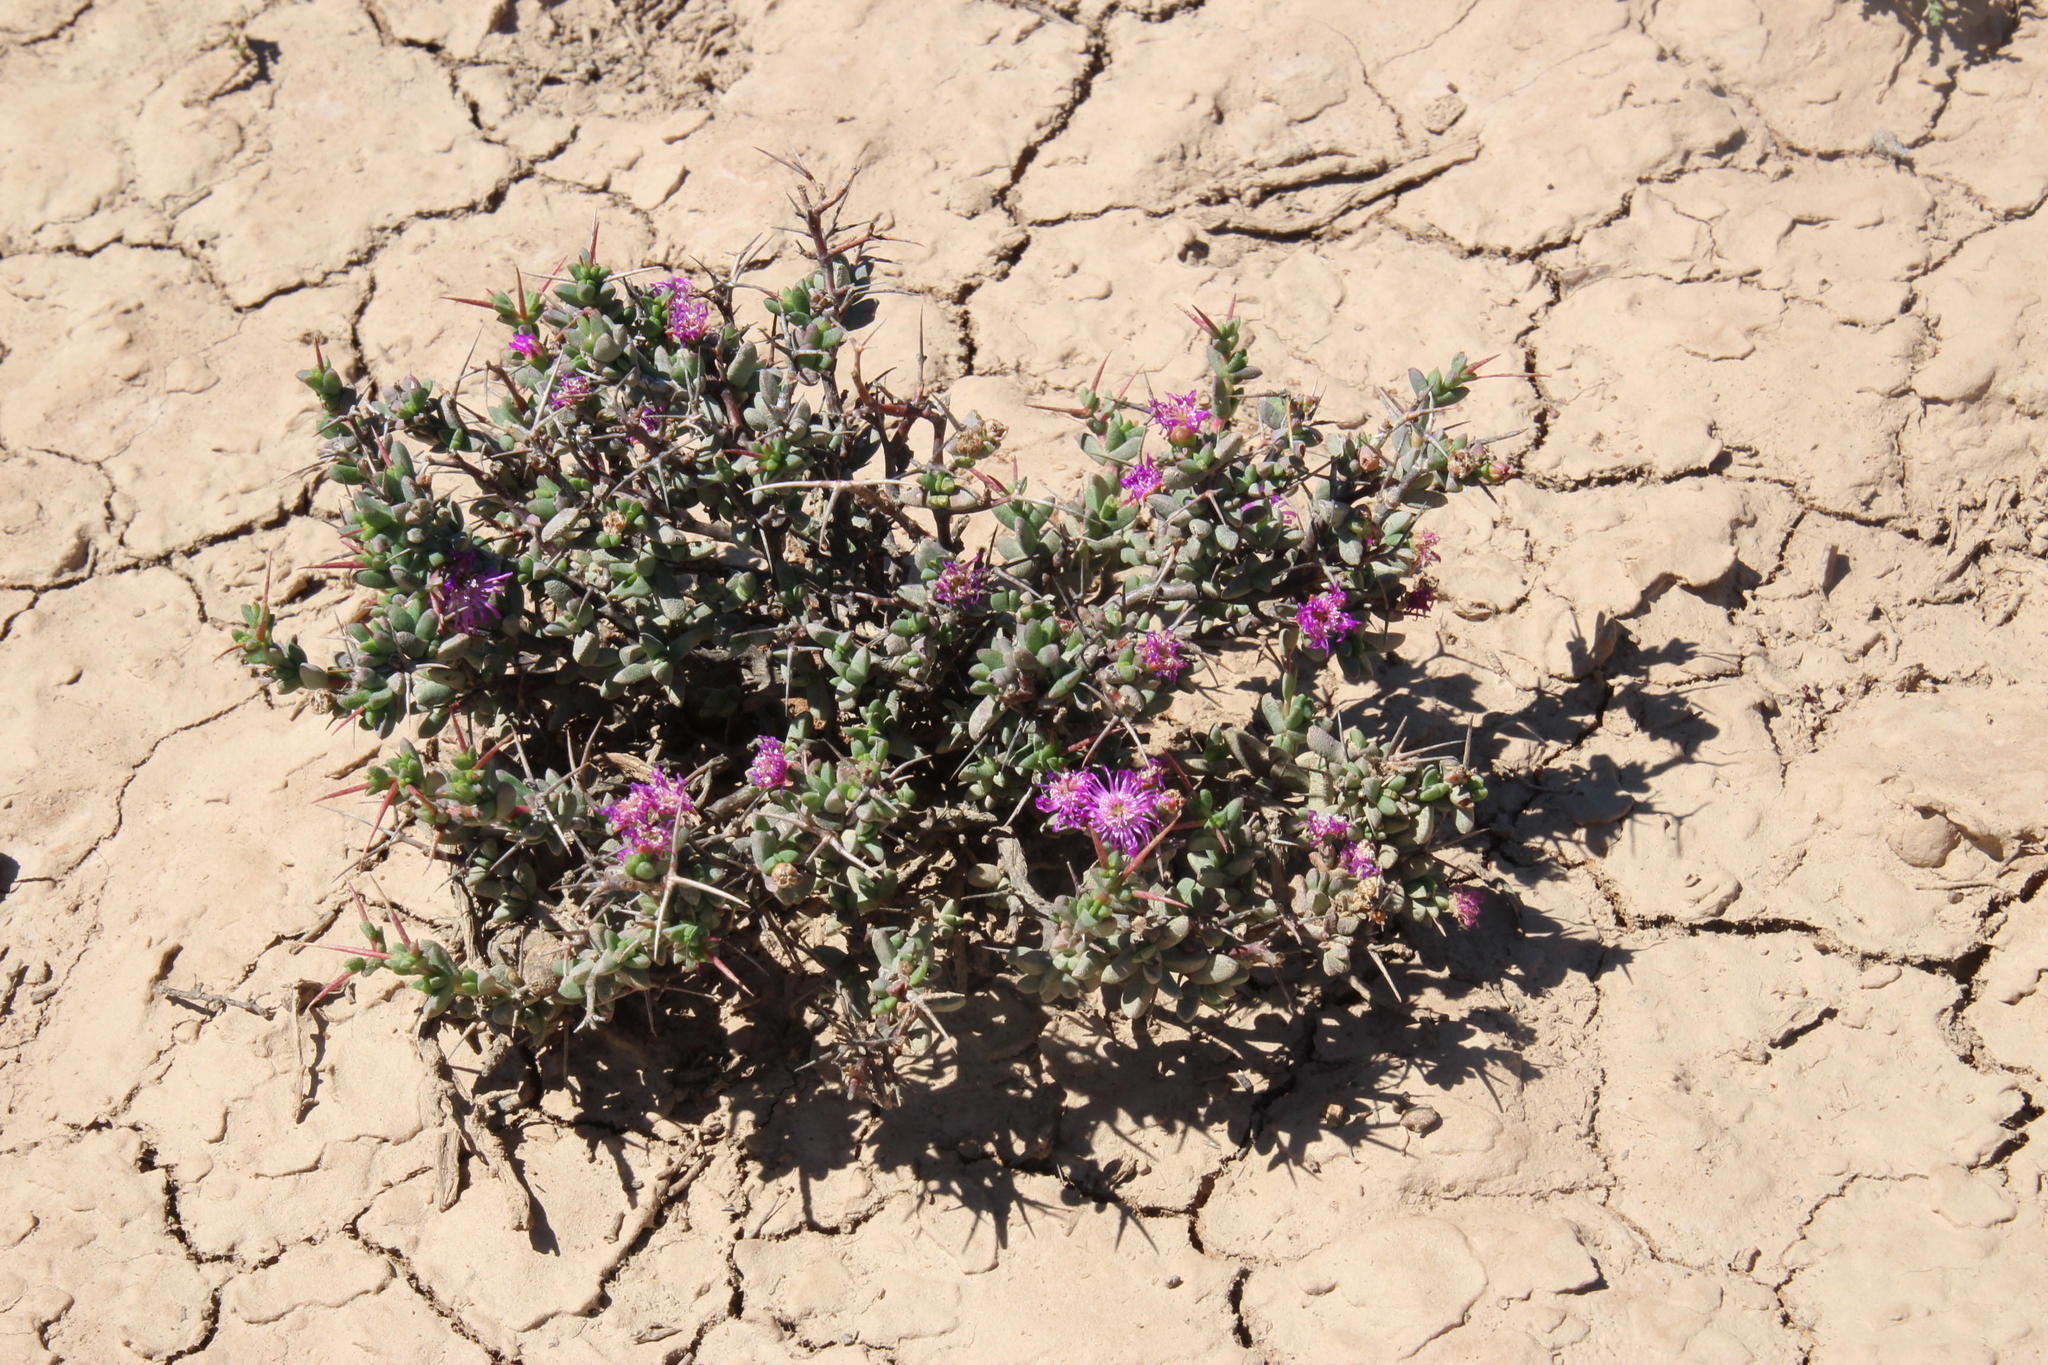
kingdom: Plantae
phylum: Tracheophyta
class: Magnoliopsida
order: Caryophyllales
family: Aizoaceae
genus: Ruschia
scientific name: Ruschia intricata
